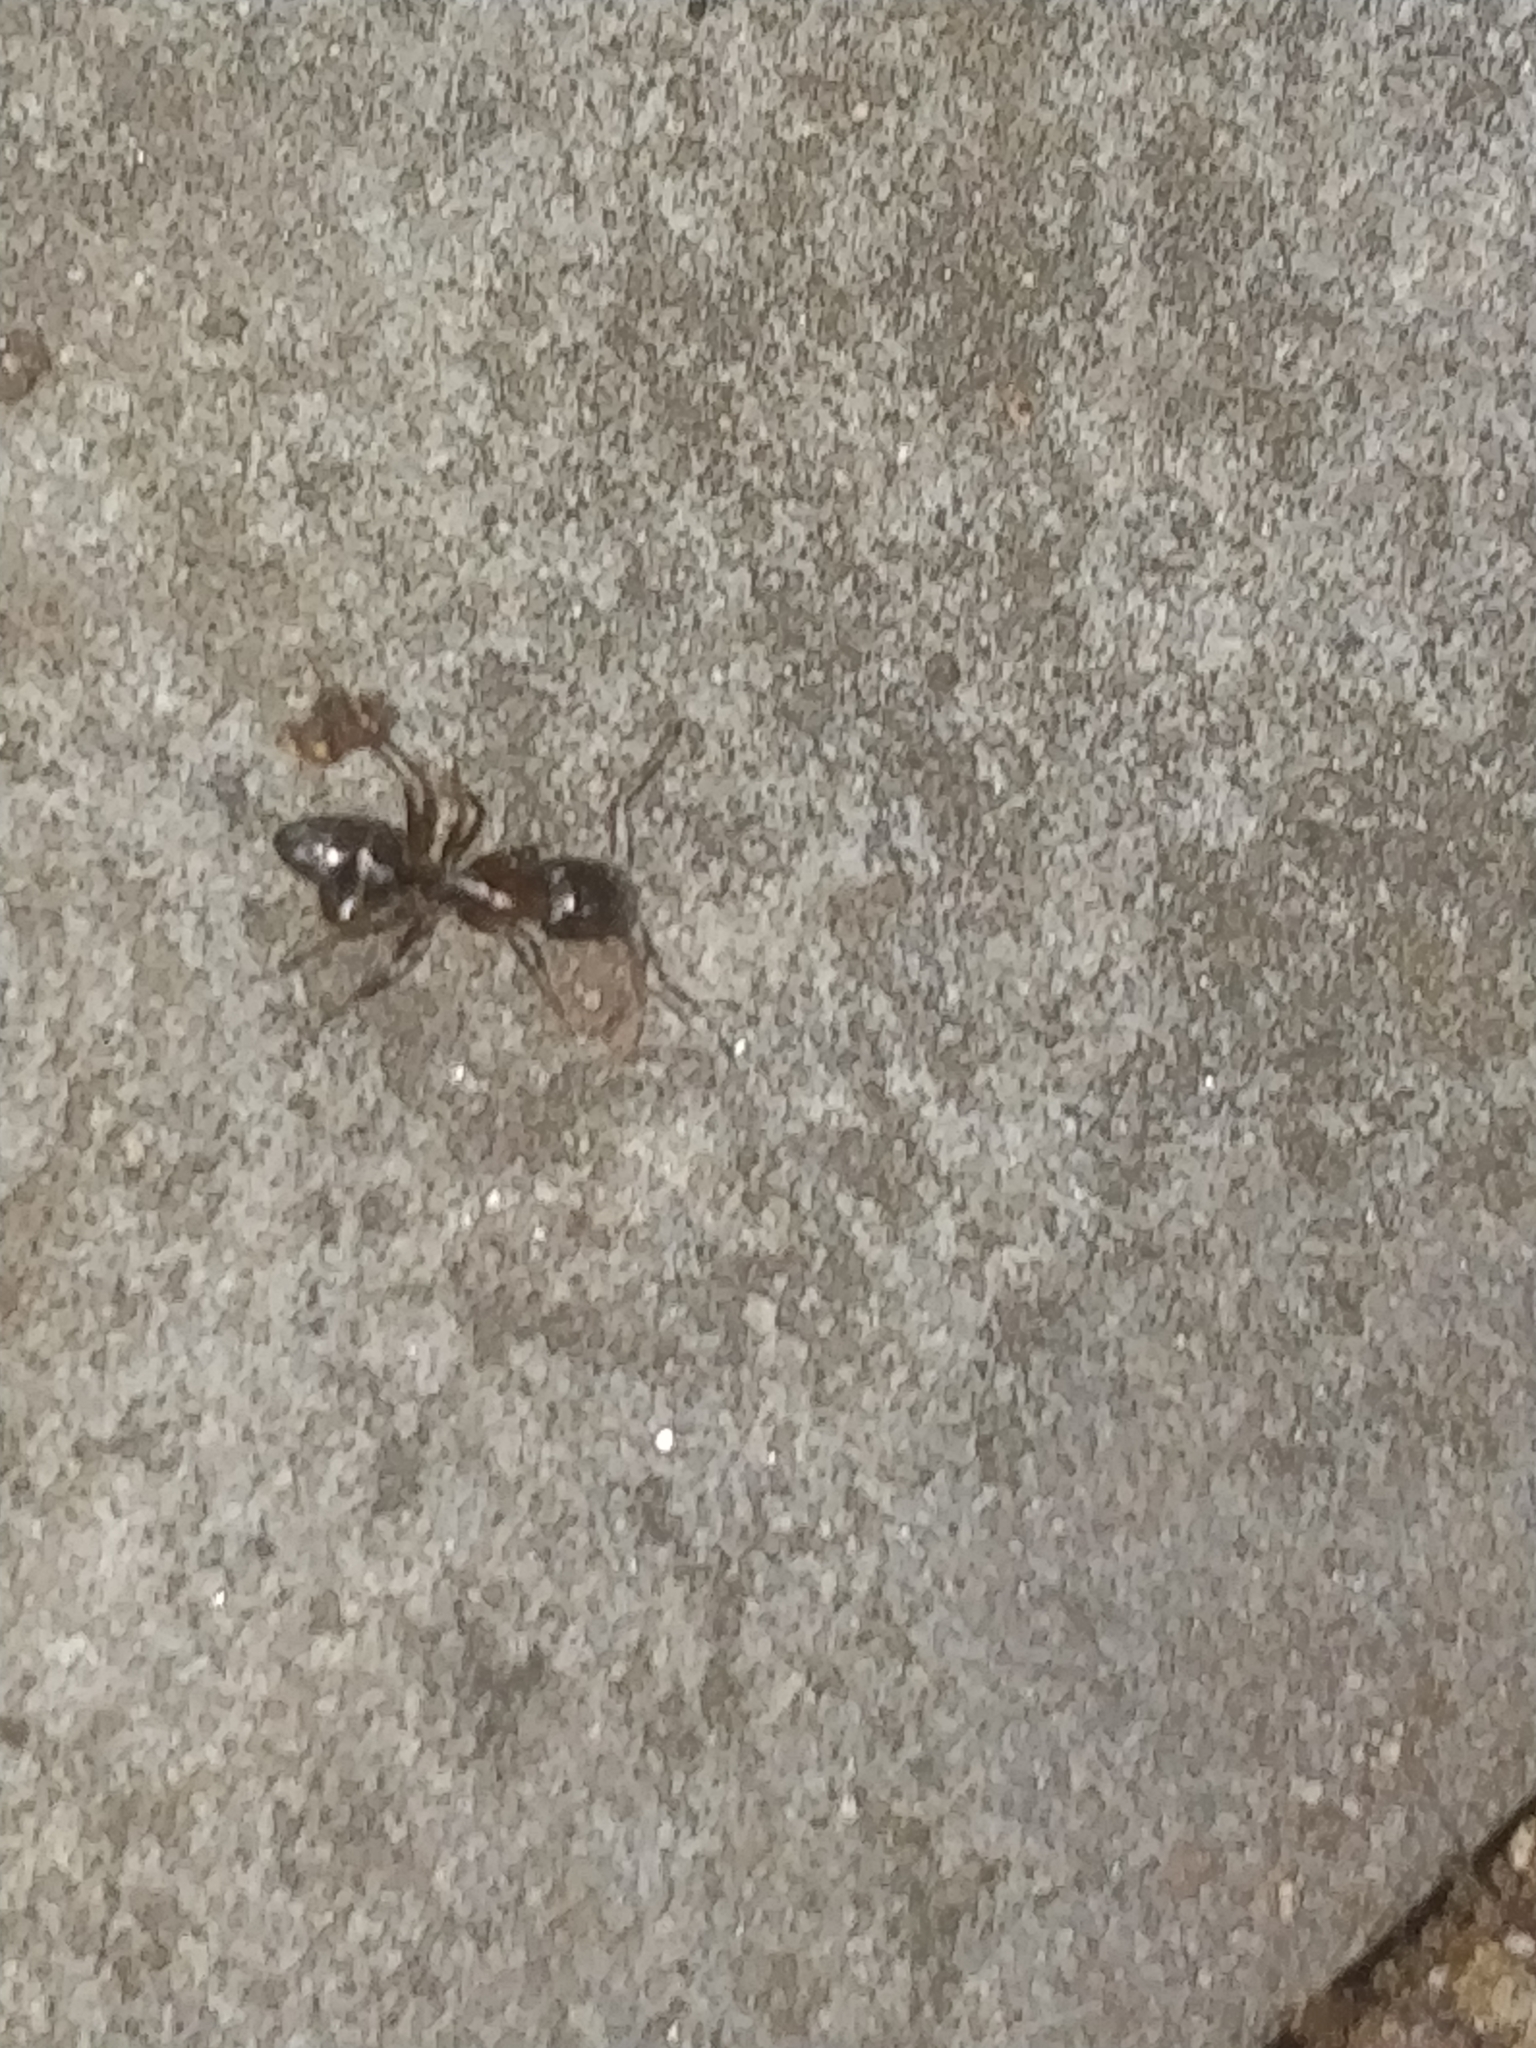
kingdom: Animalia
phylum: Arthropoda
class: Insecta
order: Hymenoptera
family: Formicidae
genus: Camponotus
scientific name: Camponotus nearcticus
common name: Smaller carpenter ant
